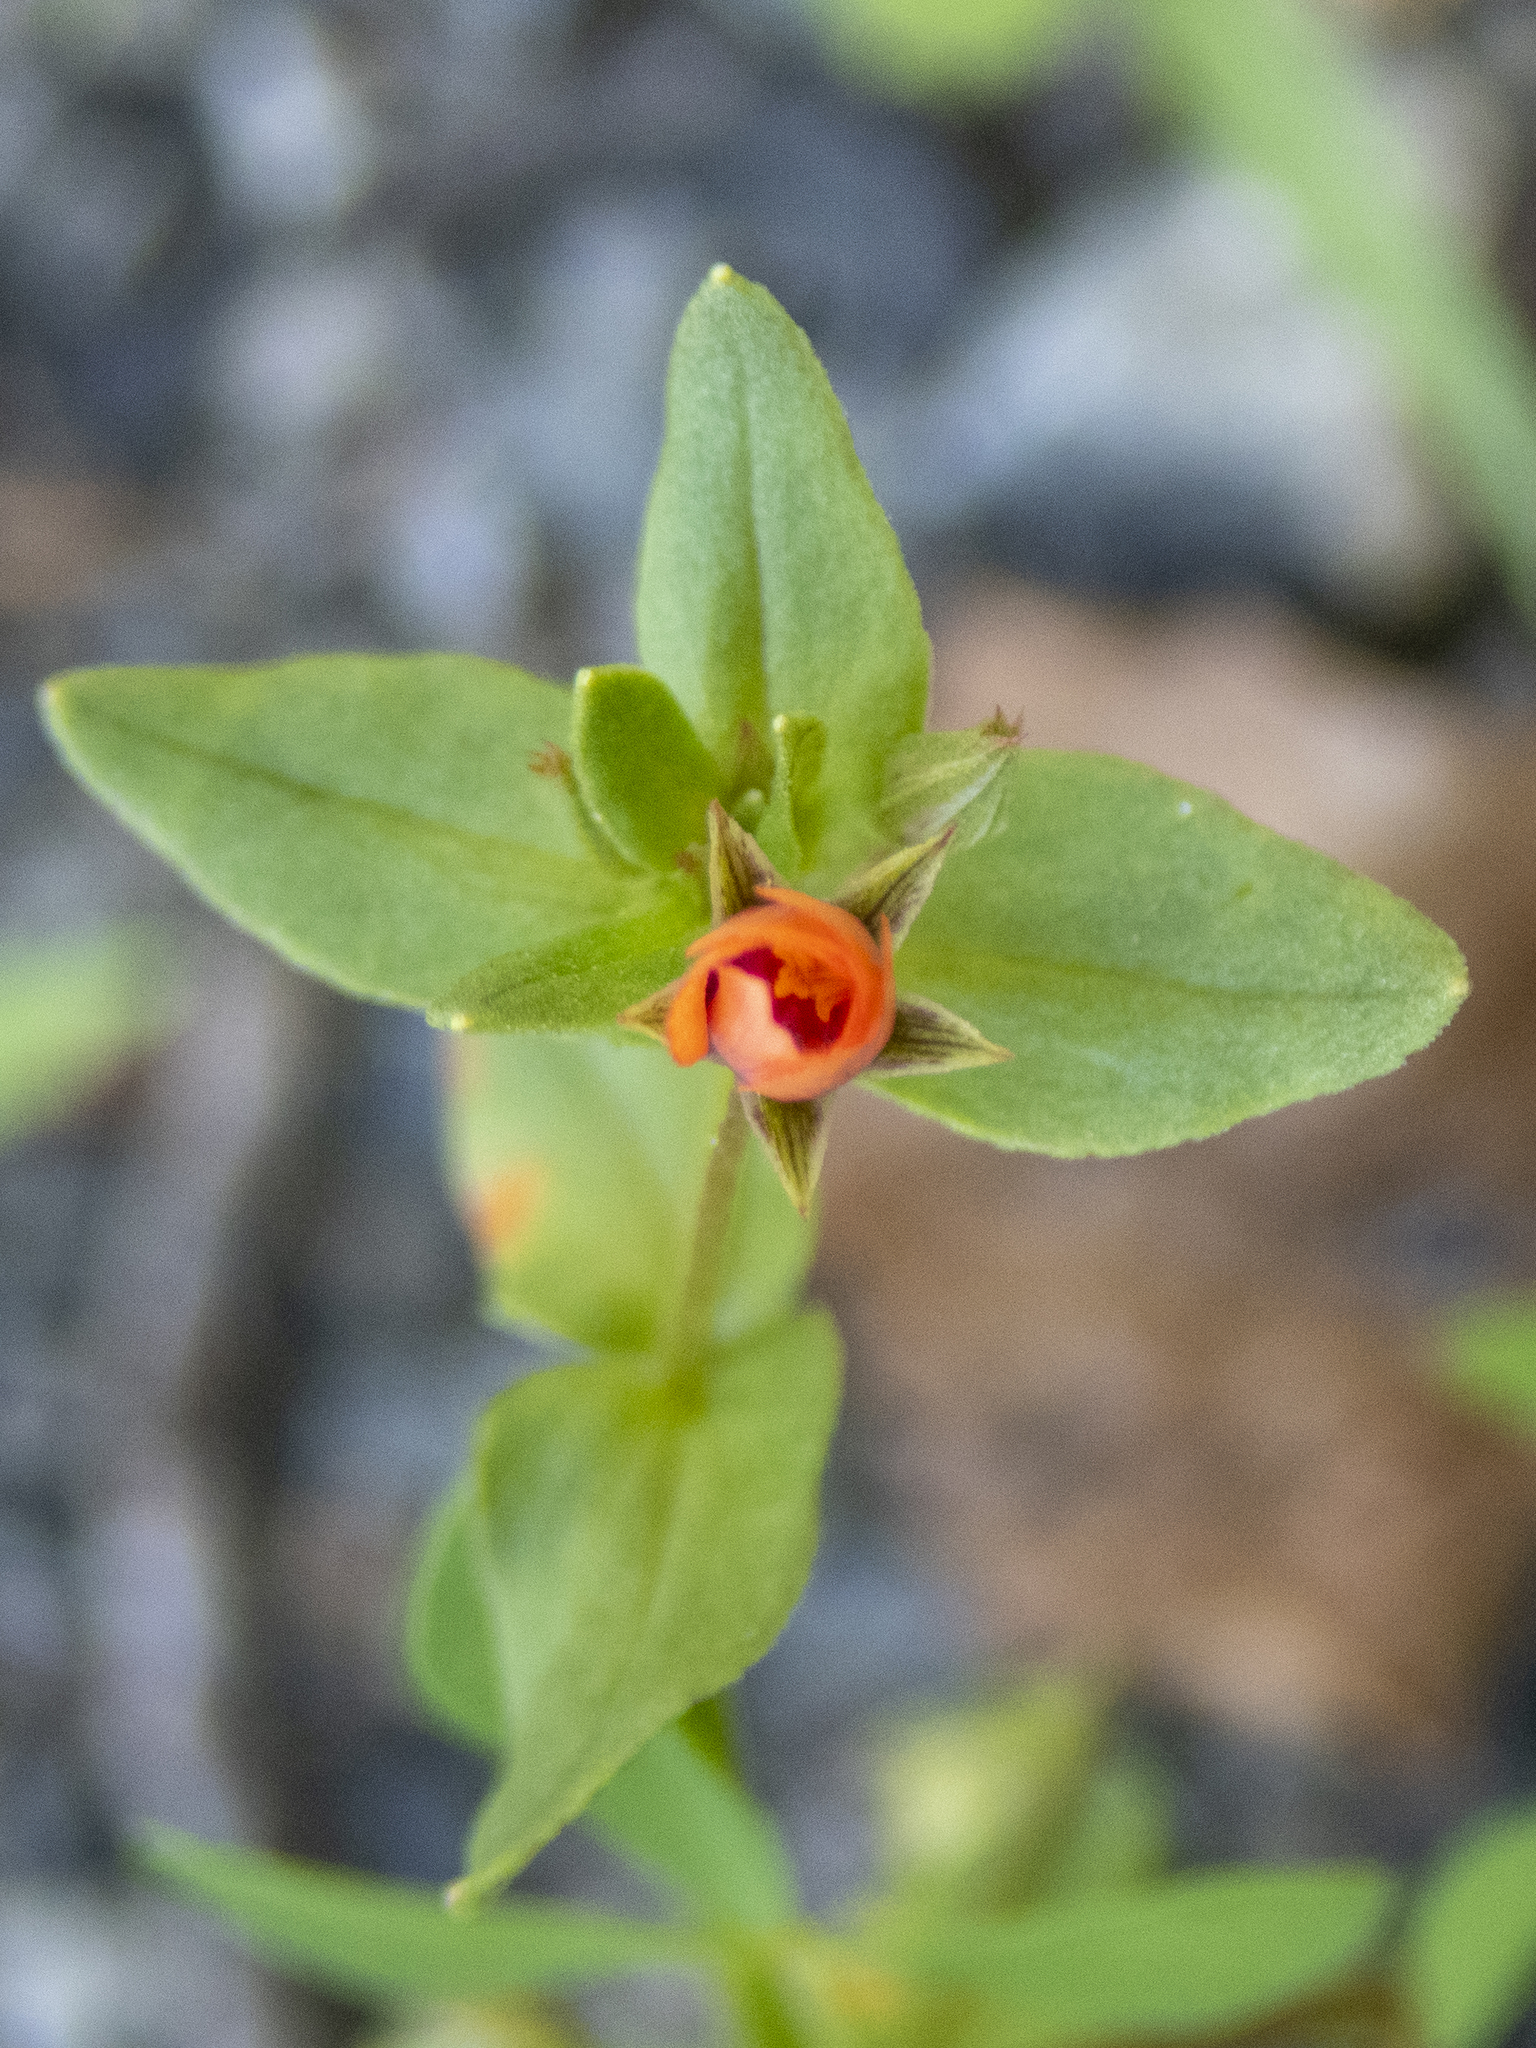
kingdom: Plantae
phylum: Tracheophyta
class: Magnoliopsida
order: Ericales
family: Primulaceae
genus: Lysimachia
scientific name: Lysimachia arvensis
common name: Scarlet pimpernel
